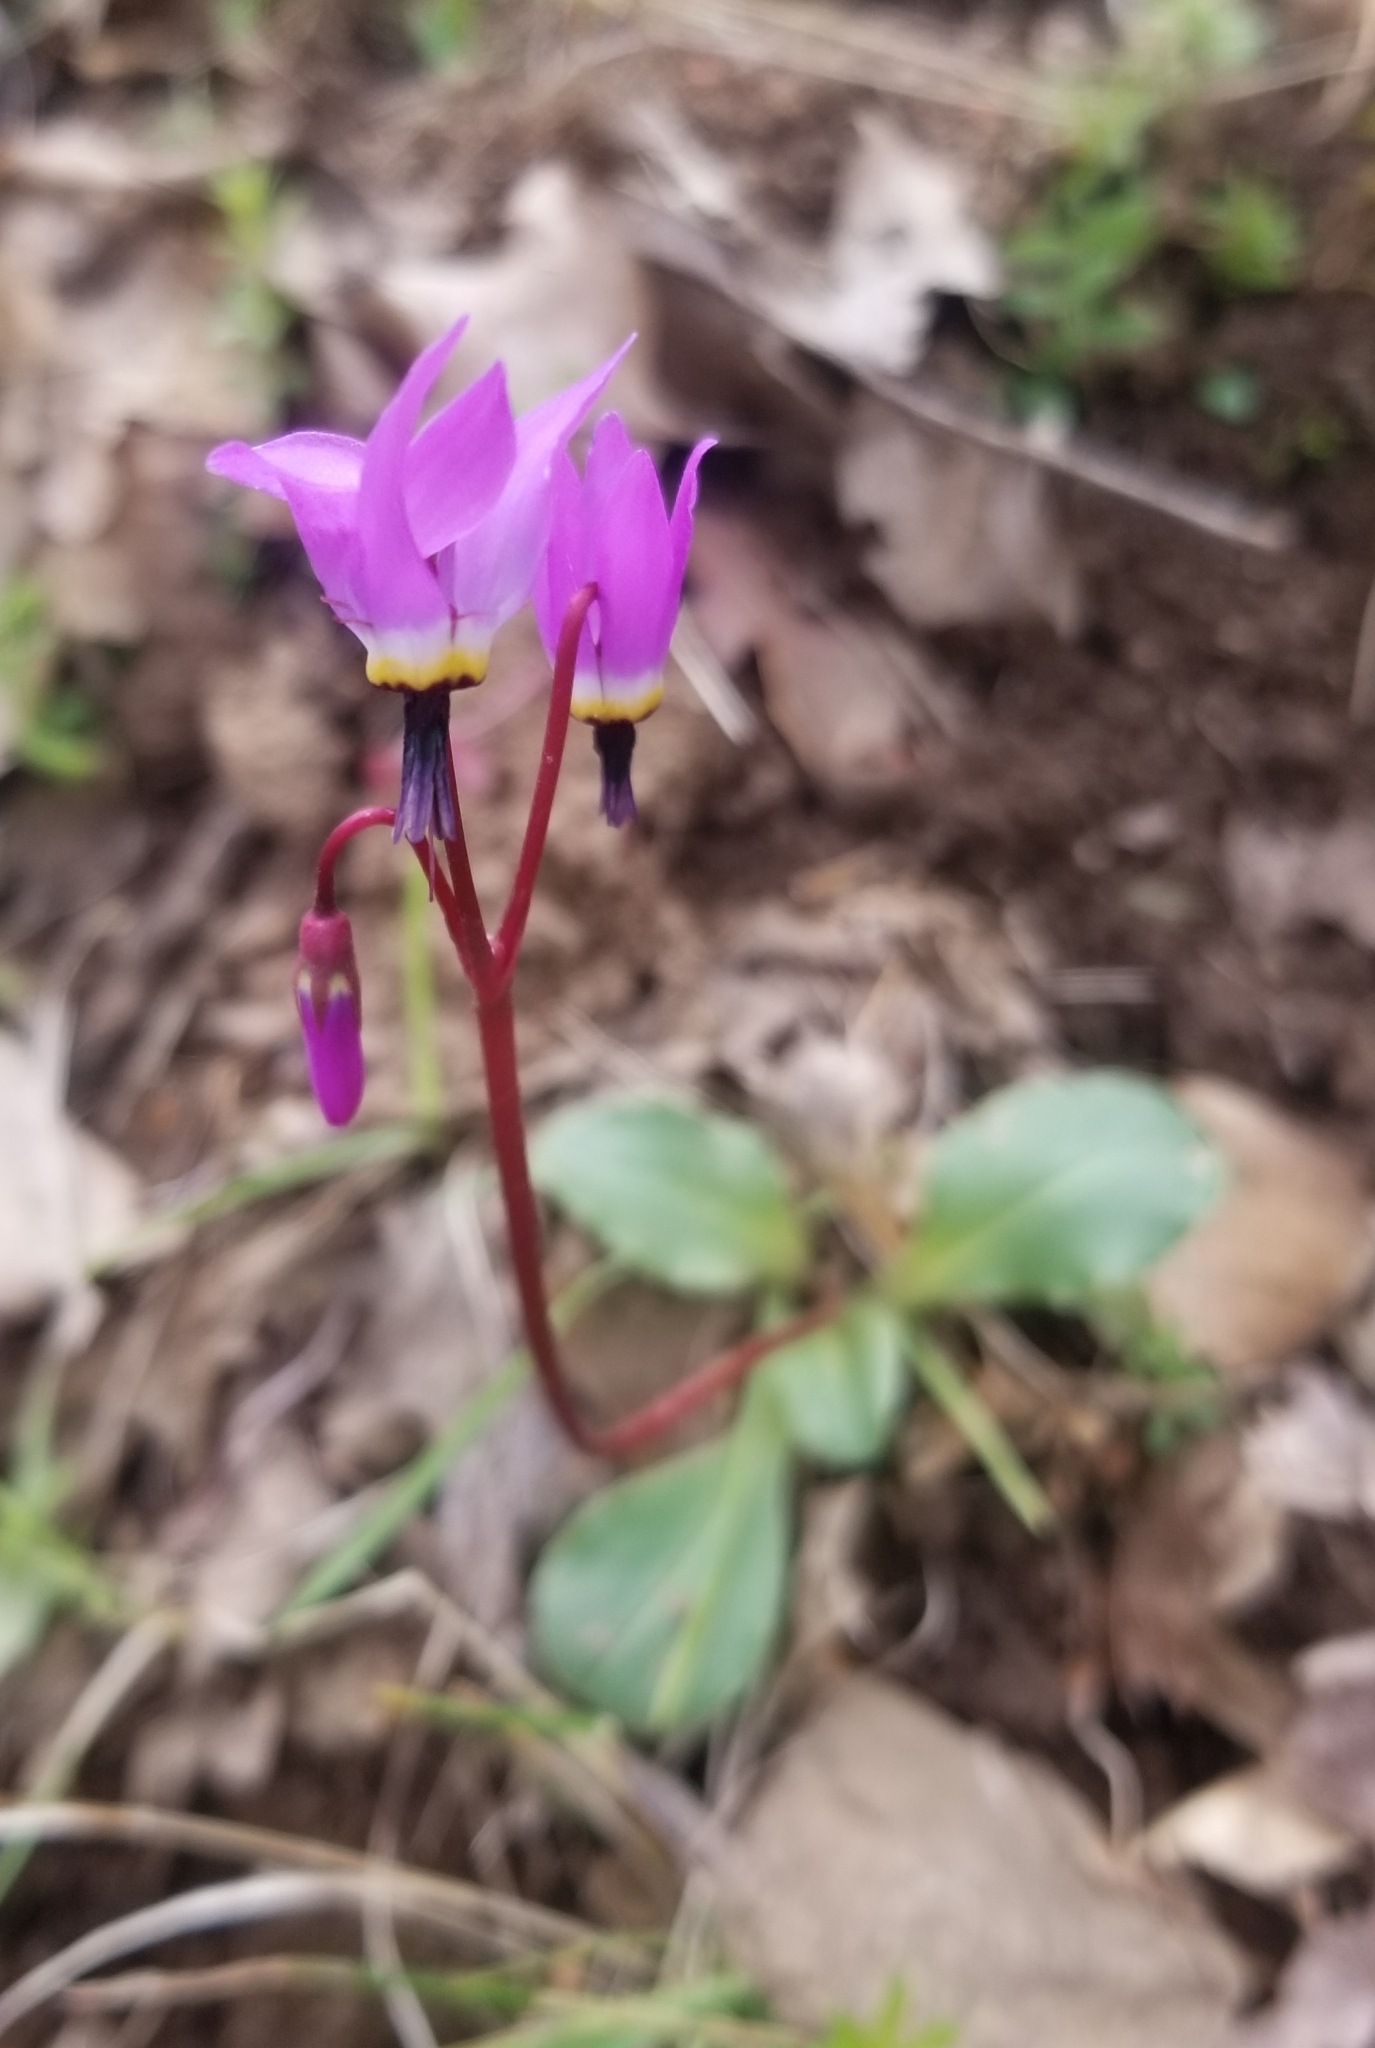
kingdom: Plantae
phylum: Tracheophyta
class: Magnoliopsida
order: Ericales
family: Primulaceae
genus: Dodecatheon
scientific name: Dodecatheon hendersonii
